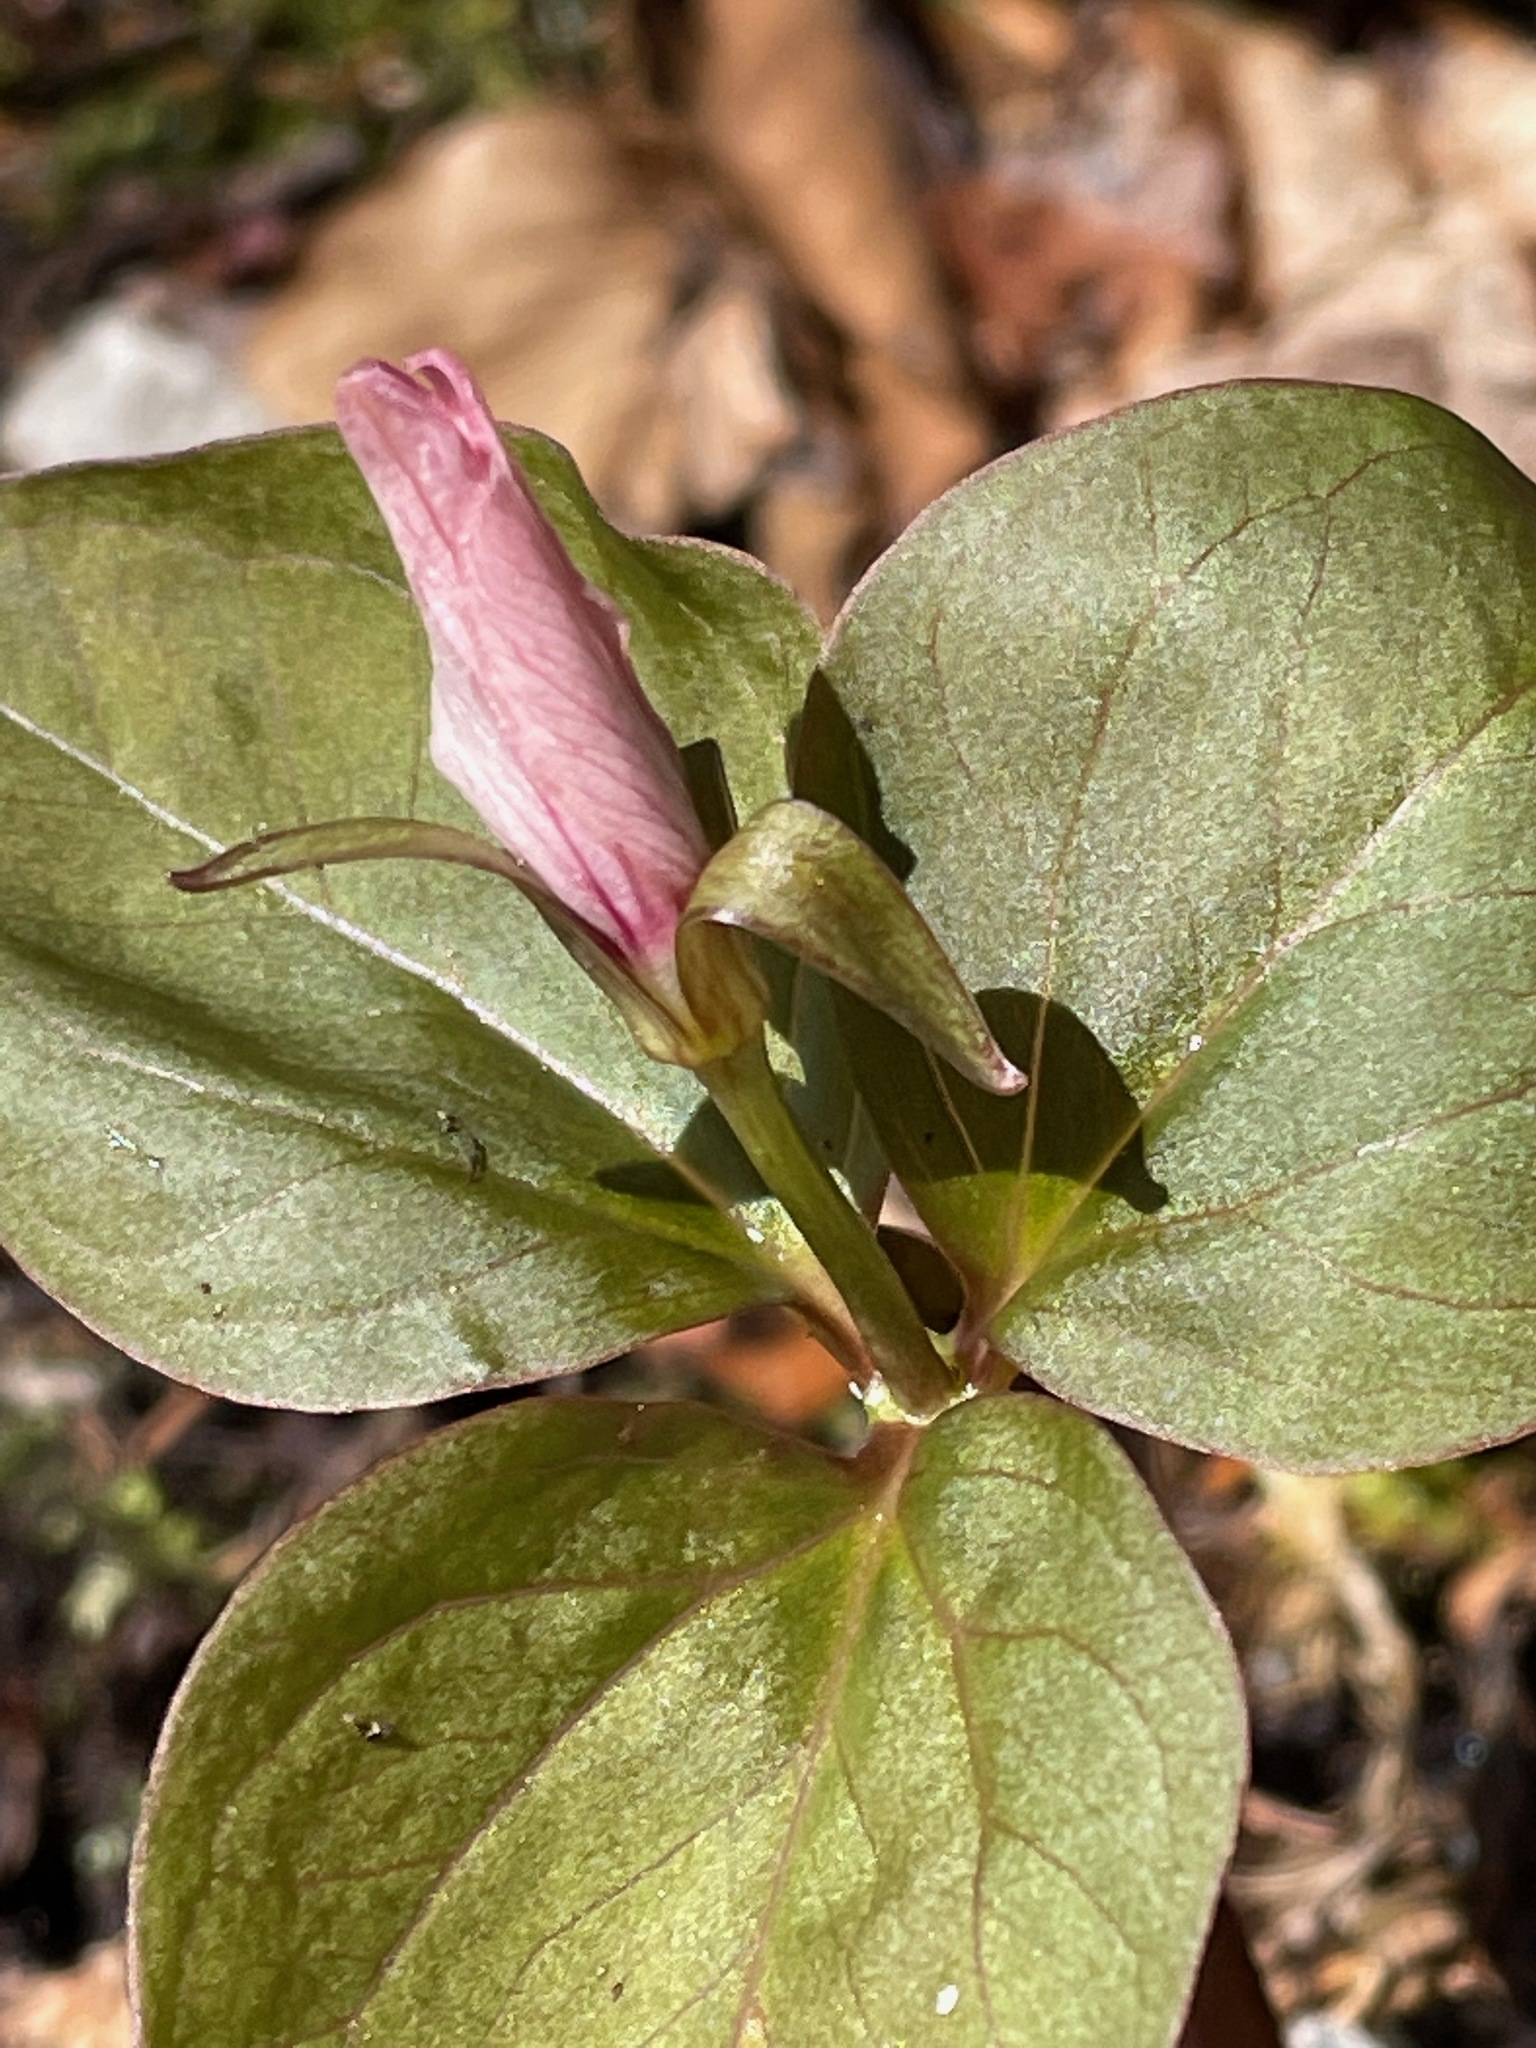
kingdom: Plantae
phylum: Tracheophyta
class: Liliopsida
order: Liliales
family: Melanthiaceae
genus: Trillium
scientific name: Trillium undulatum
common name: Paint trillium
